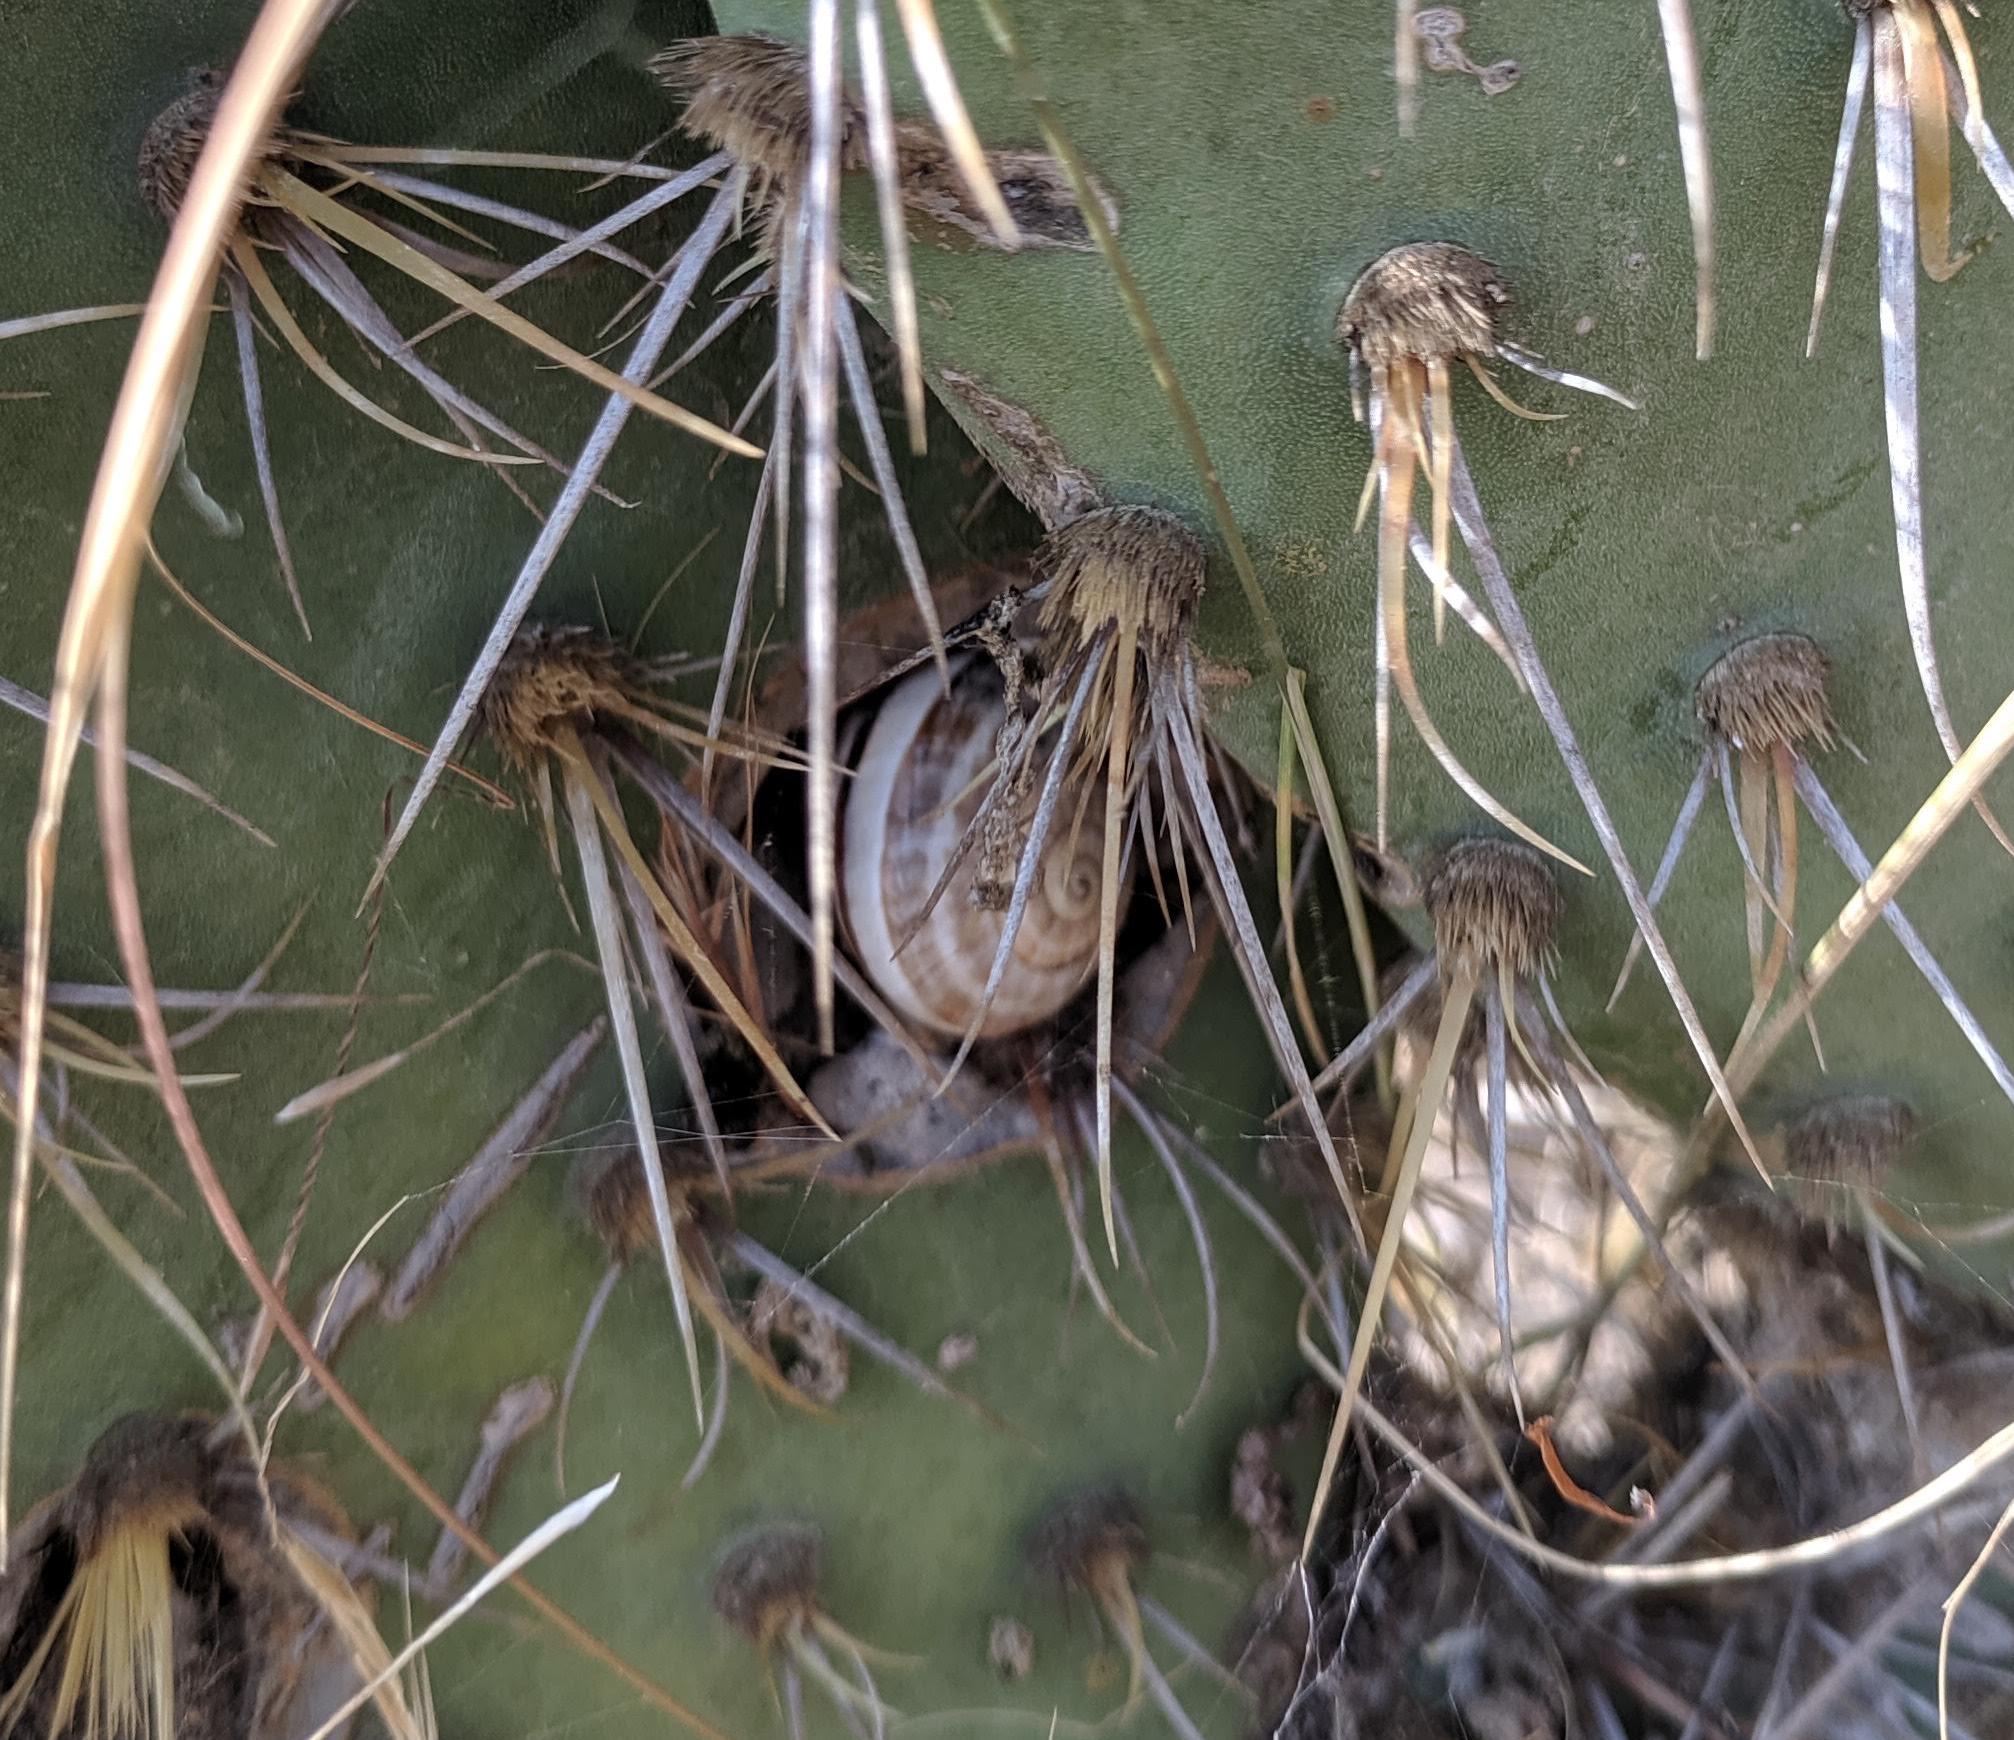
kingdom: Animalia
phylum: Mollusca
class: Gastropoda
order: Stylommatophora
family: Helicidae
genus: Otala
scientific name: Otala lactea
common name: Milk snail
